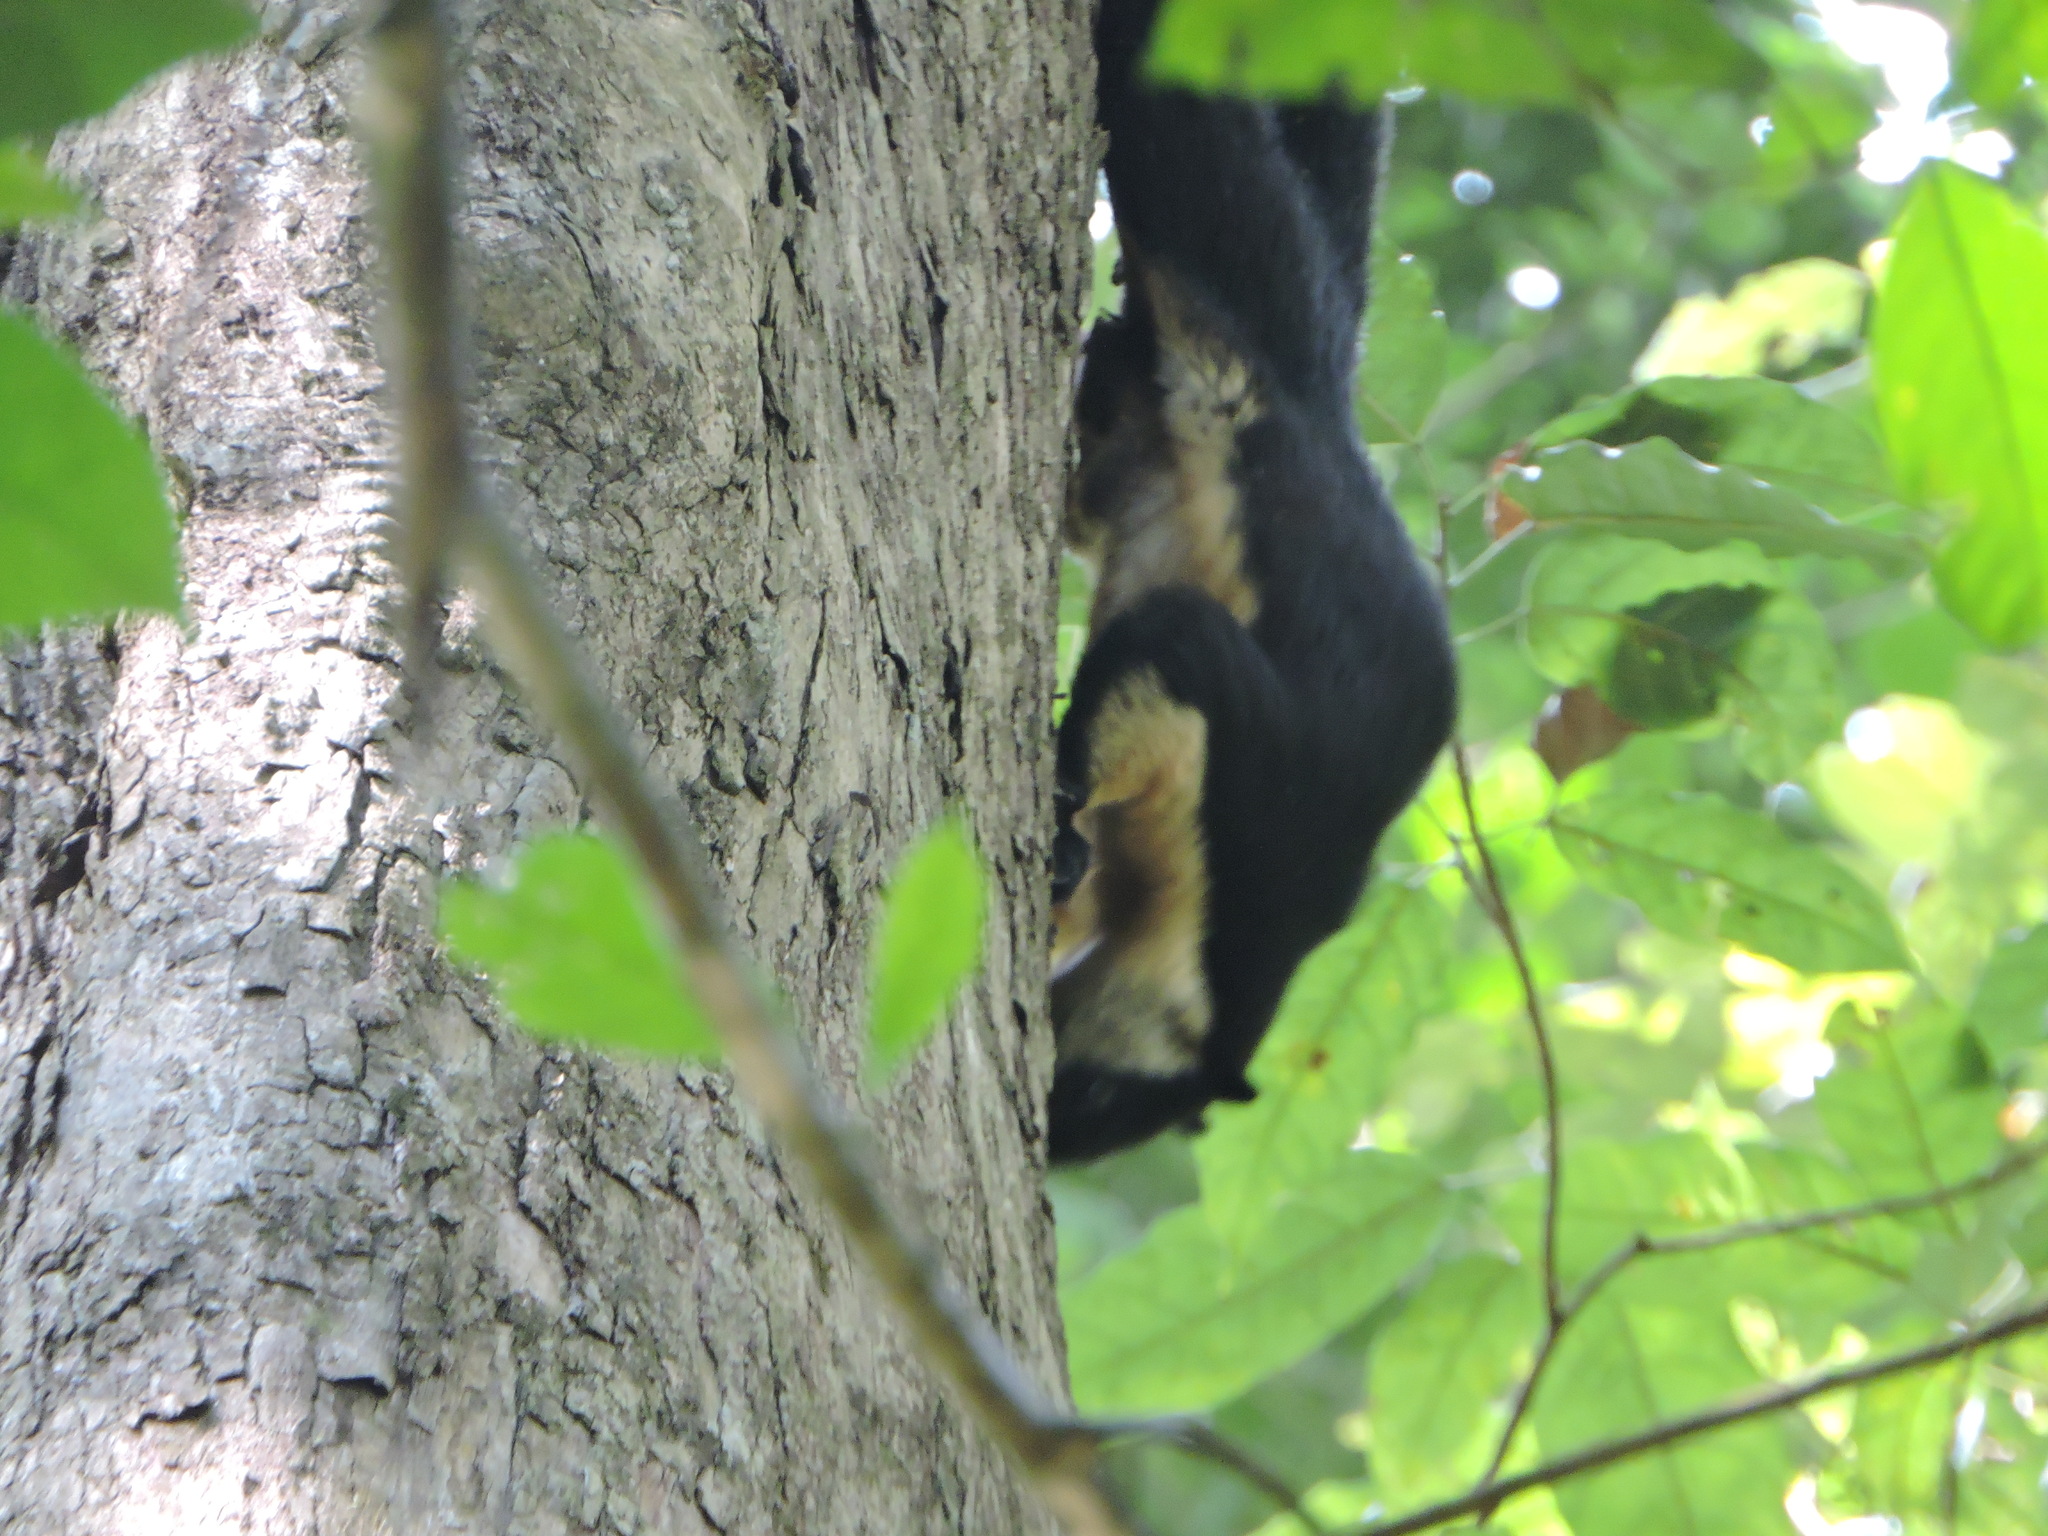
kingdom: Animalia
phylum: Chordata
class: Mammalia
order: Rodentia
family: Sciuridae
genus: Ratufa
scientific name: Ratufa bicolor
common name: Black giant squirrel
